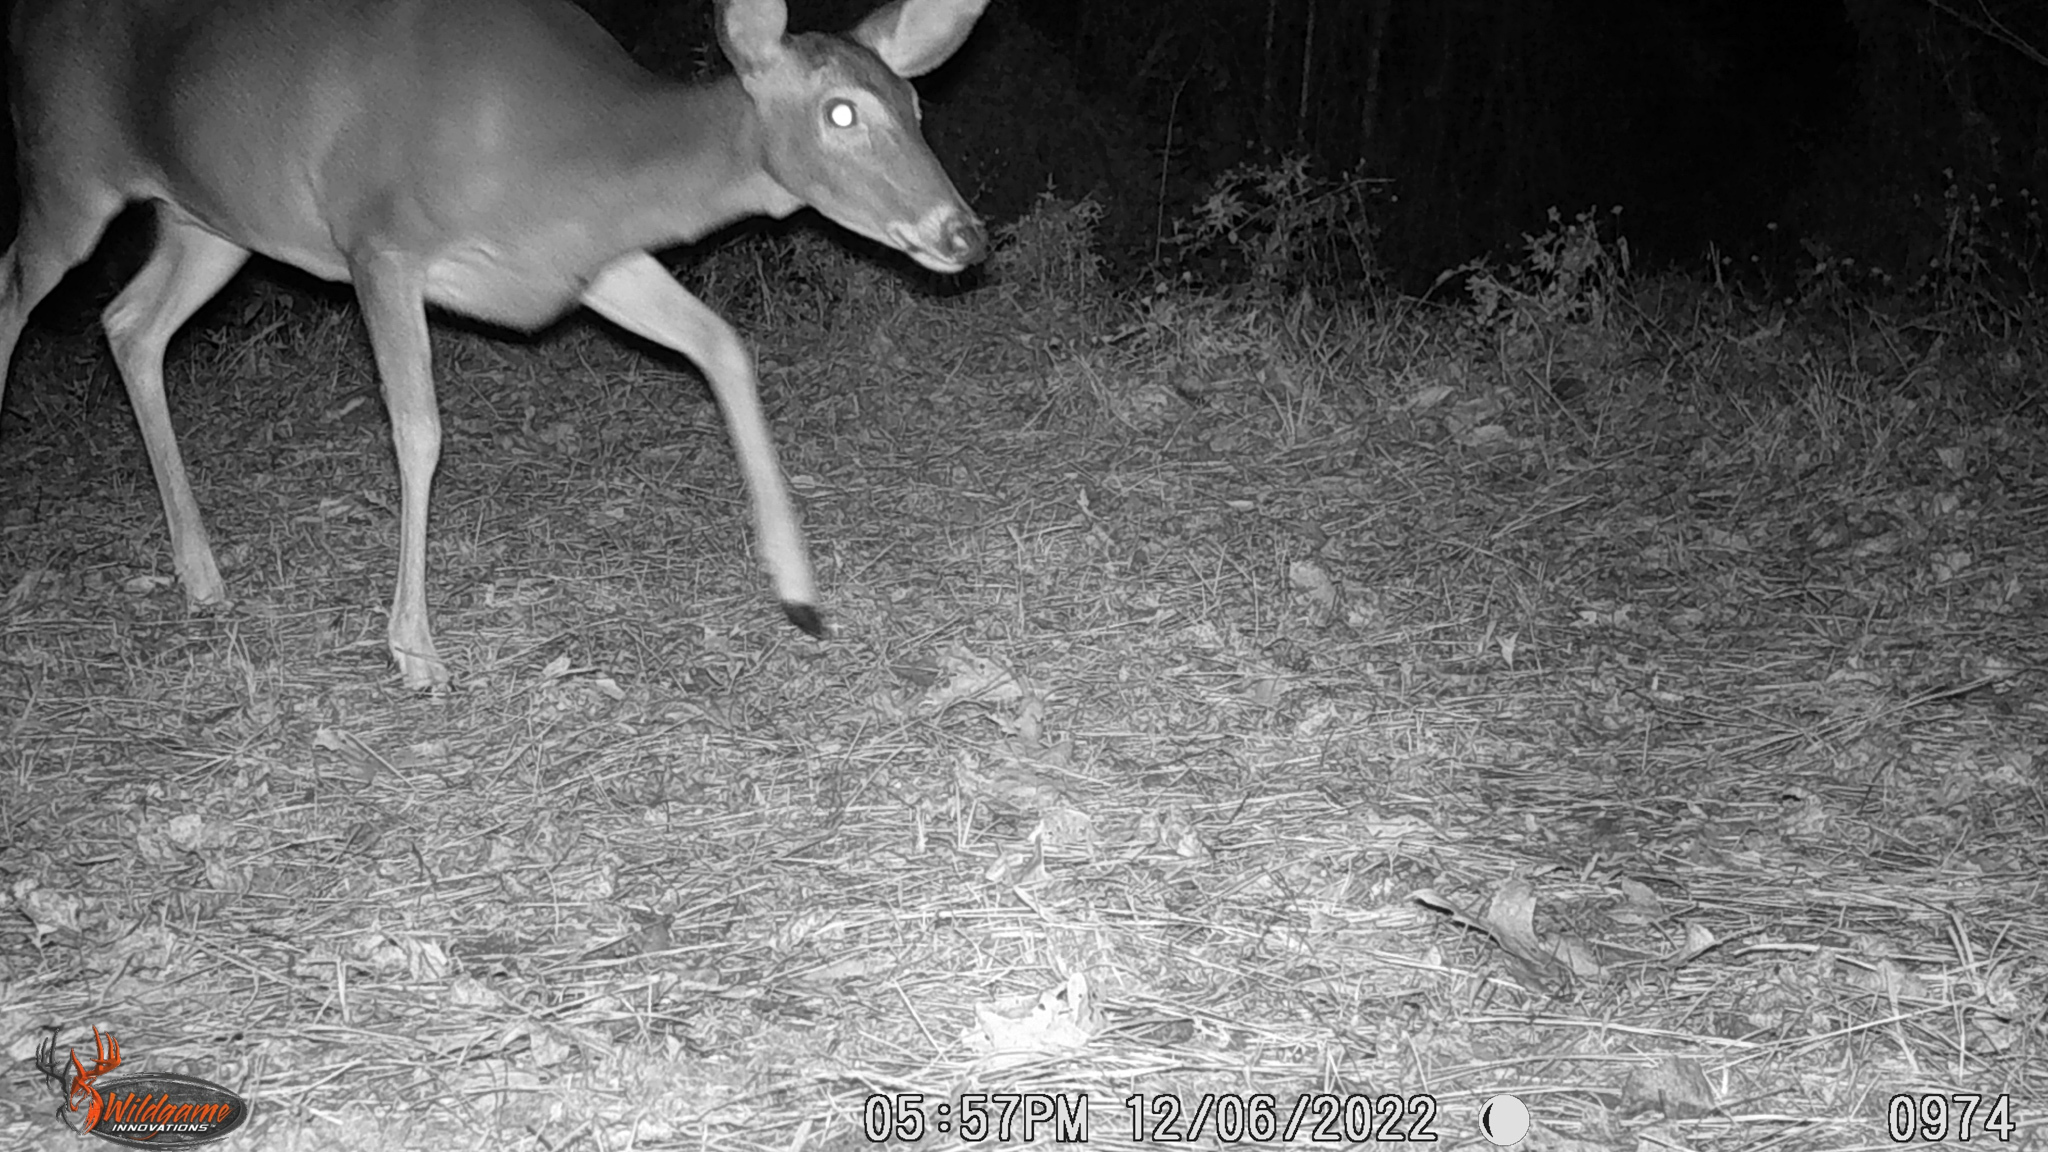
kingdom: Animalia
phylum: Chordata
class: Mammalia
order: Artiodactyla
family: Cervidae
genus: Odocoileus
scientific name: Odocoileus virginianus
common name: White-tailed deer
